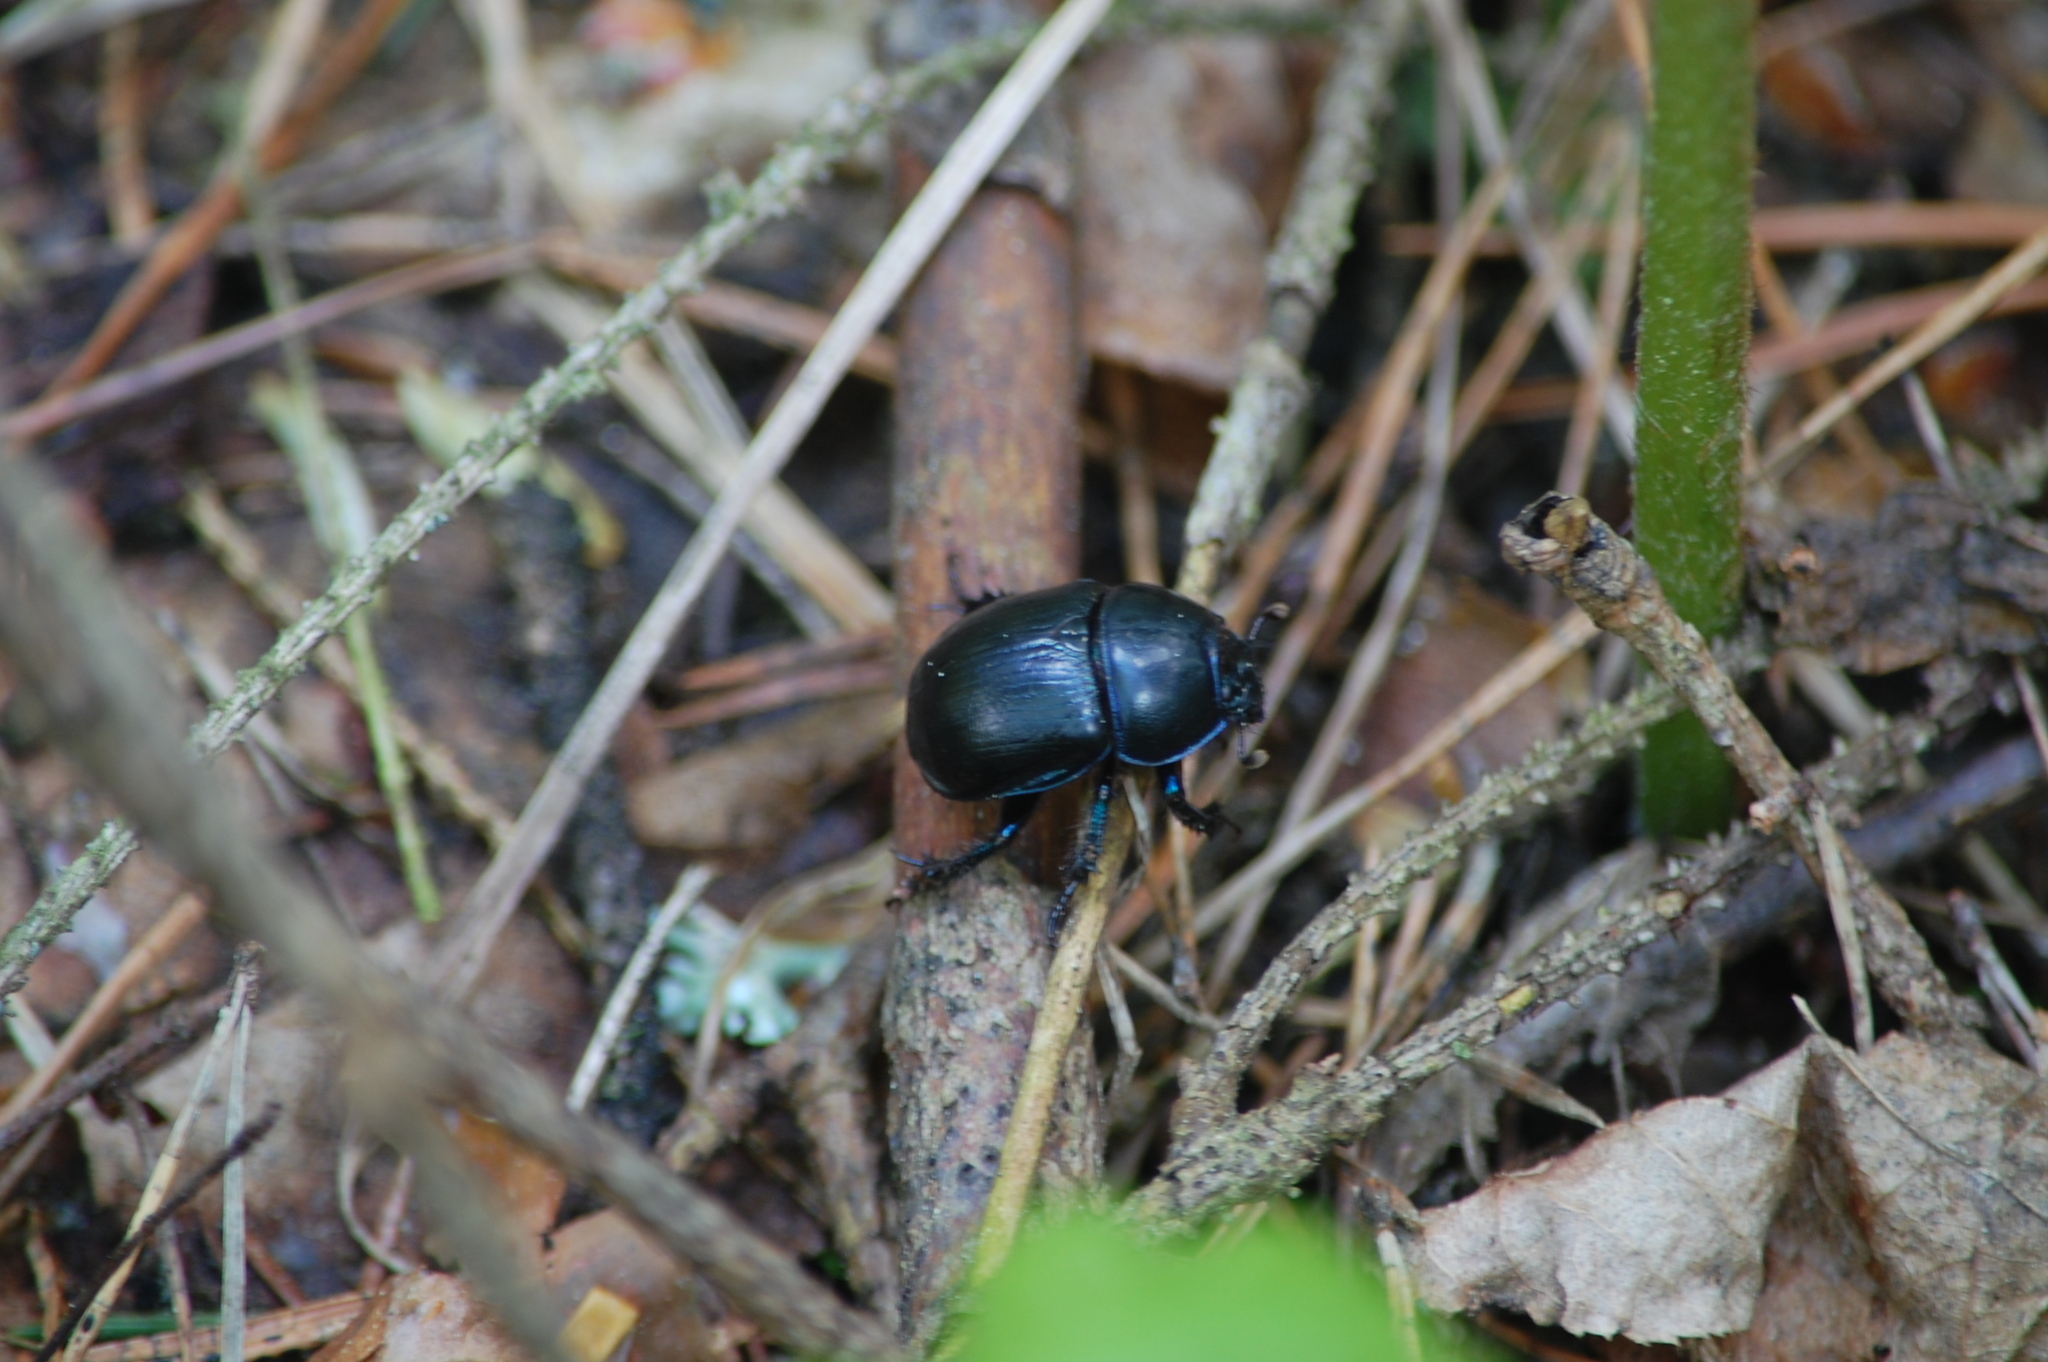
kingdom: Animalia
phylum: Arthropoda
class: Insecta
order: Coleoptera
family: Geotrupidae
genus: Anoplotrupes
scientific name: Anoplotrupes stercorosus
